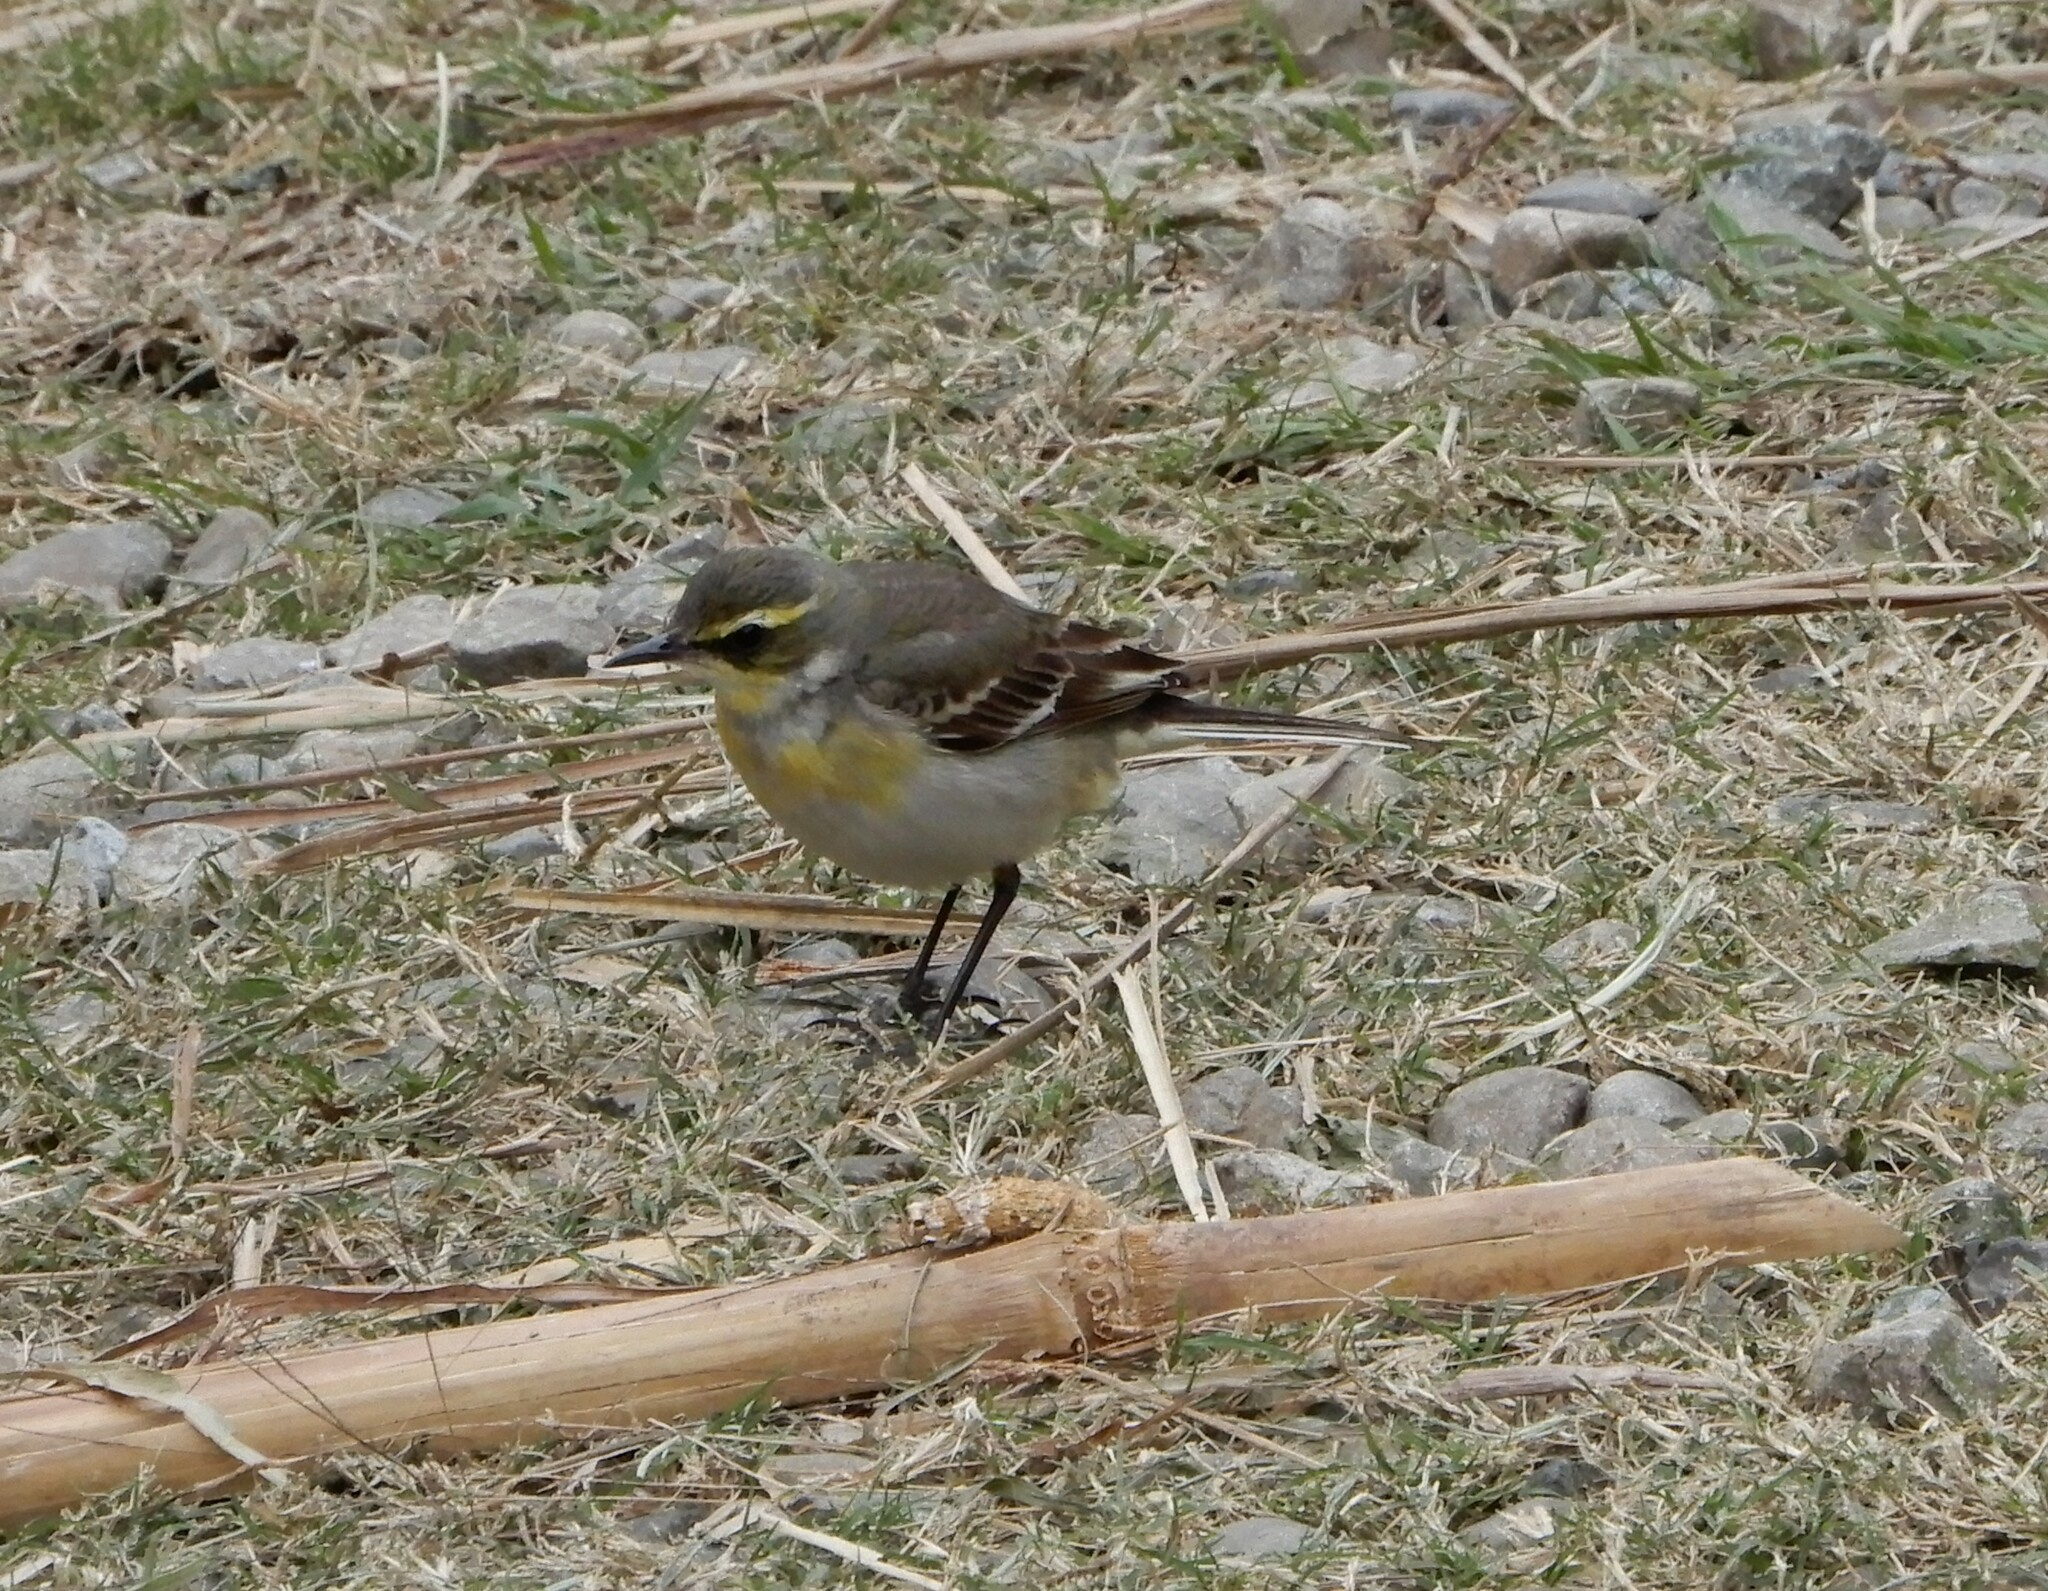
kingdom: Animalia
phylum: Chordata
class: Aves
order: Passeriformes
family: Motacillidae
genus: Motacilla
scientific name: Motacilla tschutschensis
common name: Eastern yellow wagtail
